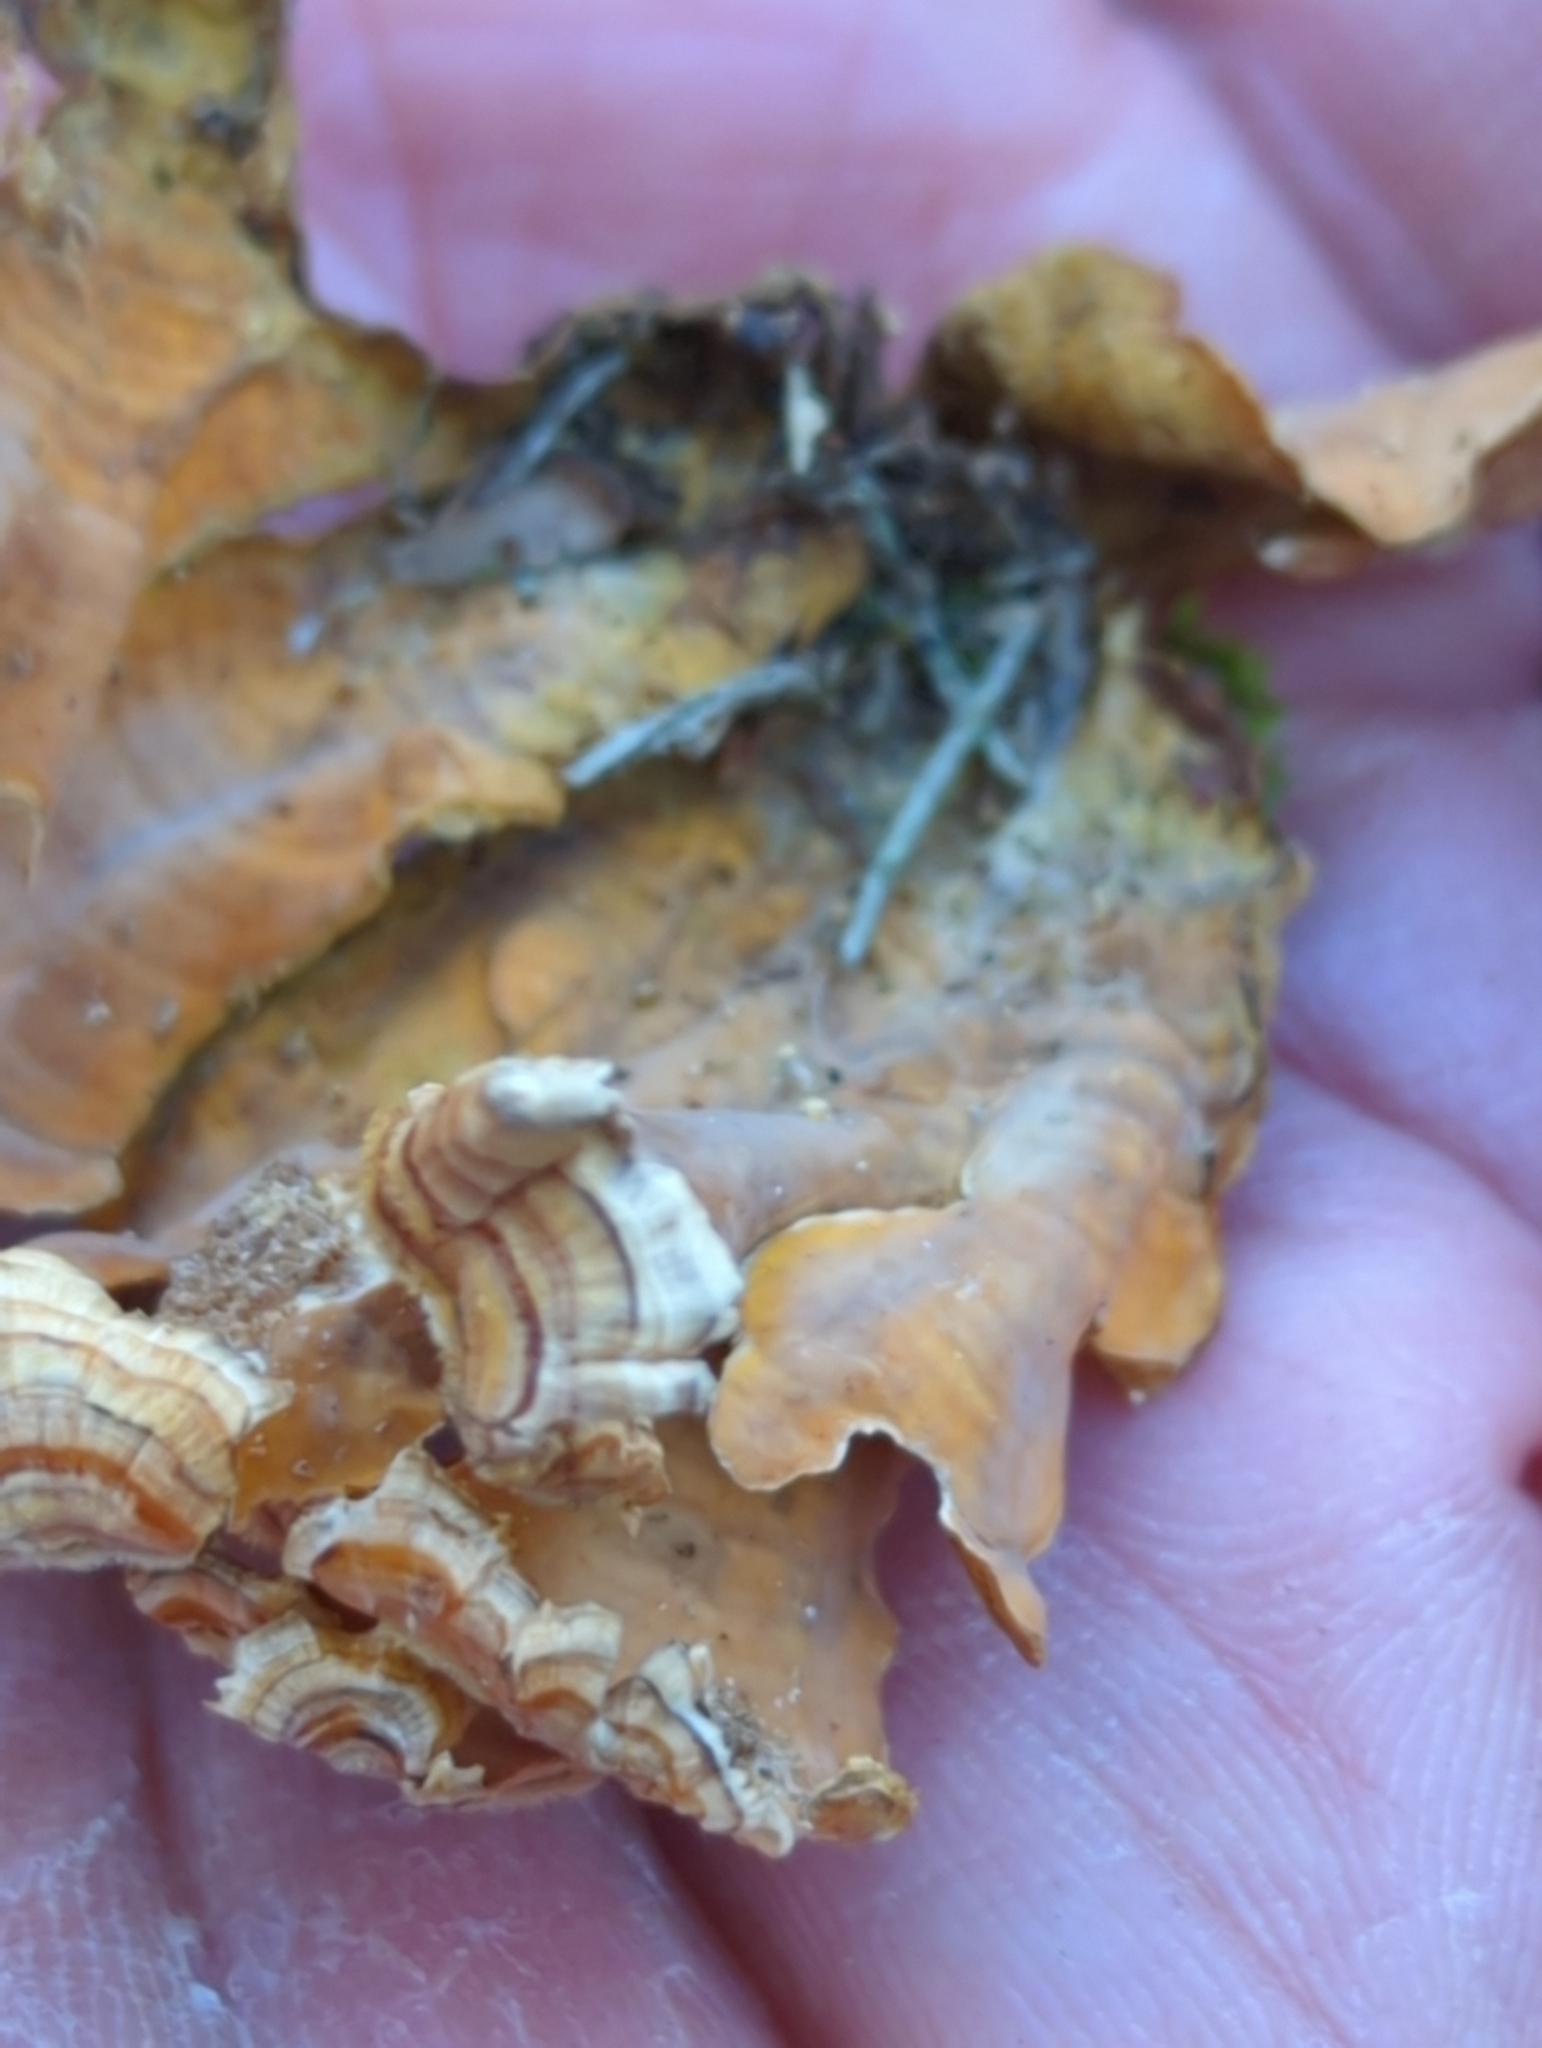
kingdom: Fungi
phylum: Basidiomycota
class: Agaricomycetes
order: Russulales
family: Stereaceae
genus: Stereum
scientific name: Stereum complicatum
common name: Crowded parchment
